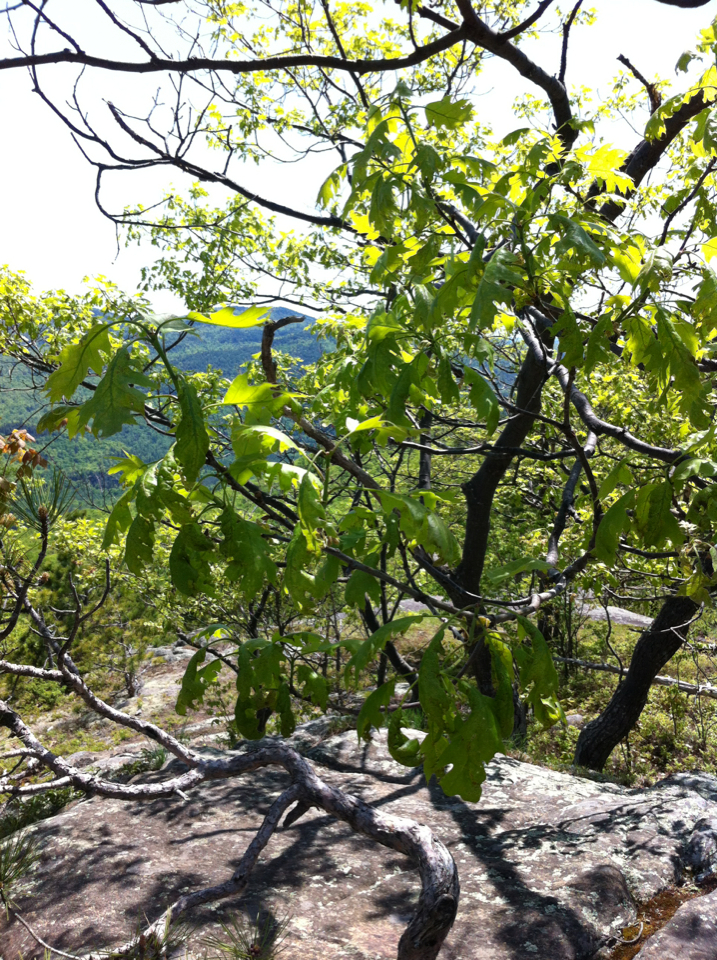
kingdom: Plantae
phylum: Tracheophyta
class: Magnoliopsida
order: Fagales
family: Fagaceae
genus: Quercus
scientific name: Quercus rubra
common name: Red oak
